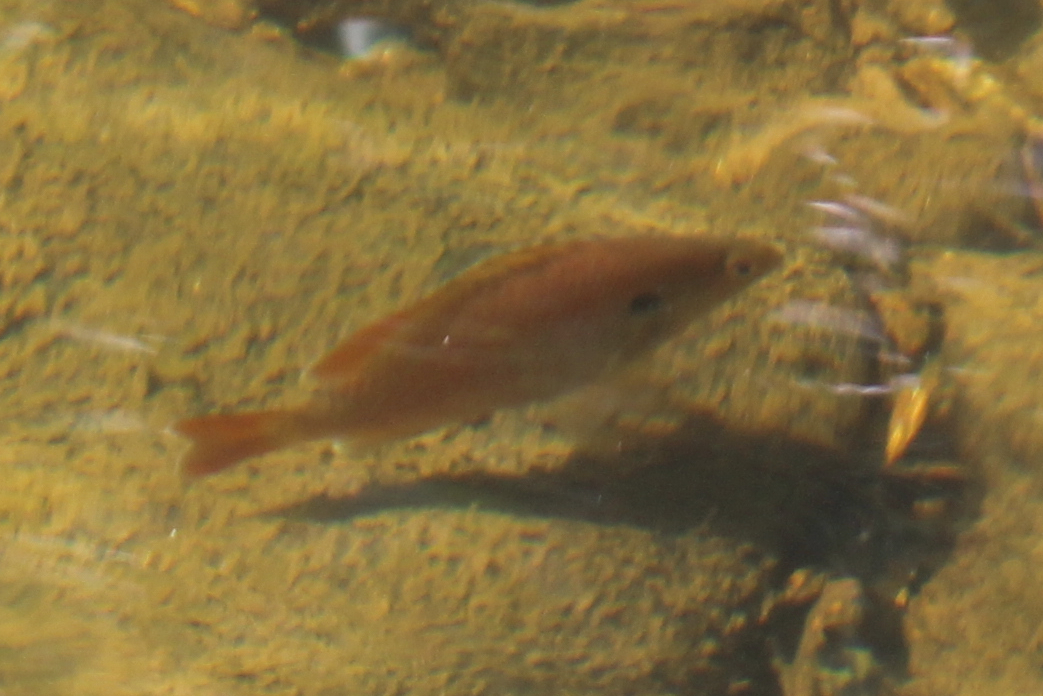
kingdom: Animalia
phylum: Chordata
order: Perciformes
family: Centrarchidae
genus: Lepomis
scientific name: Lepomis auritus
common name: Redbreast sunfish
